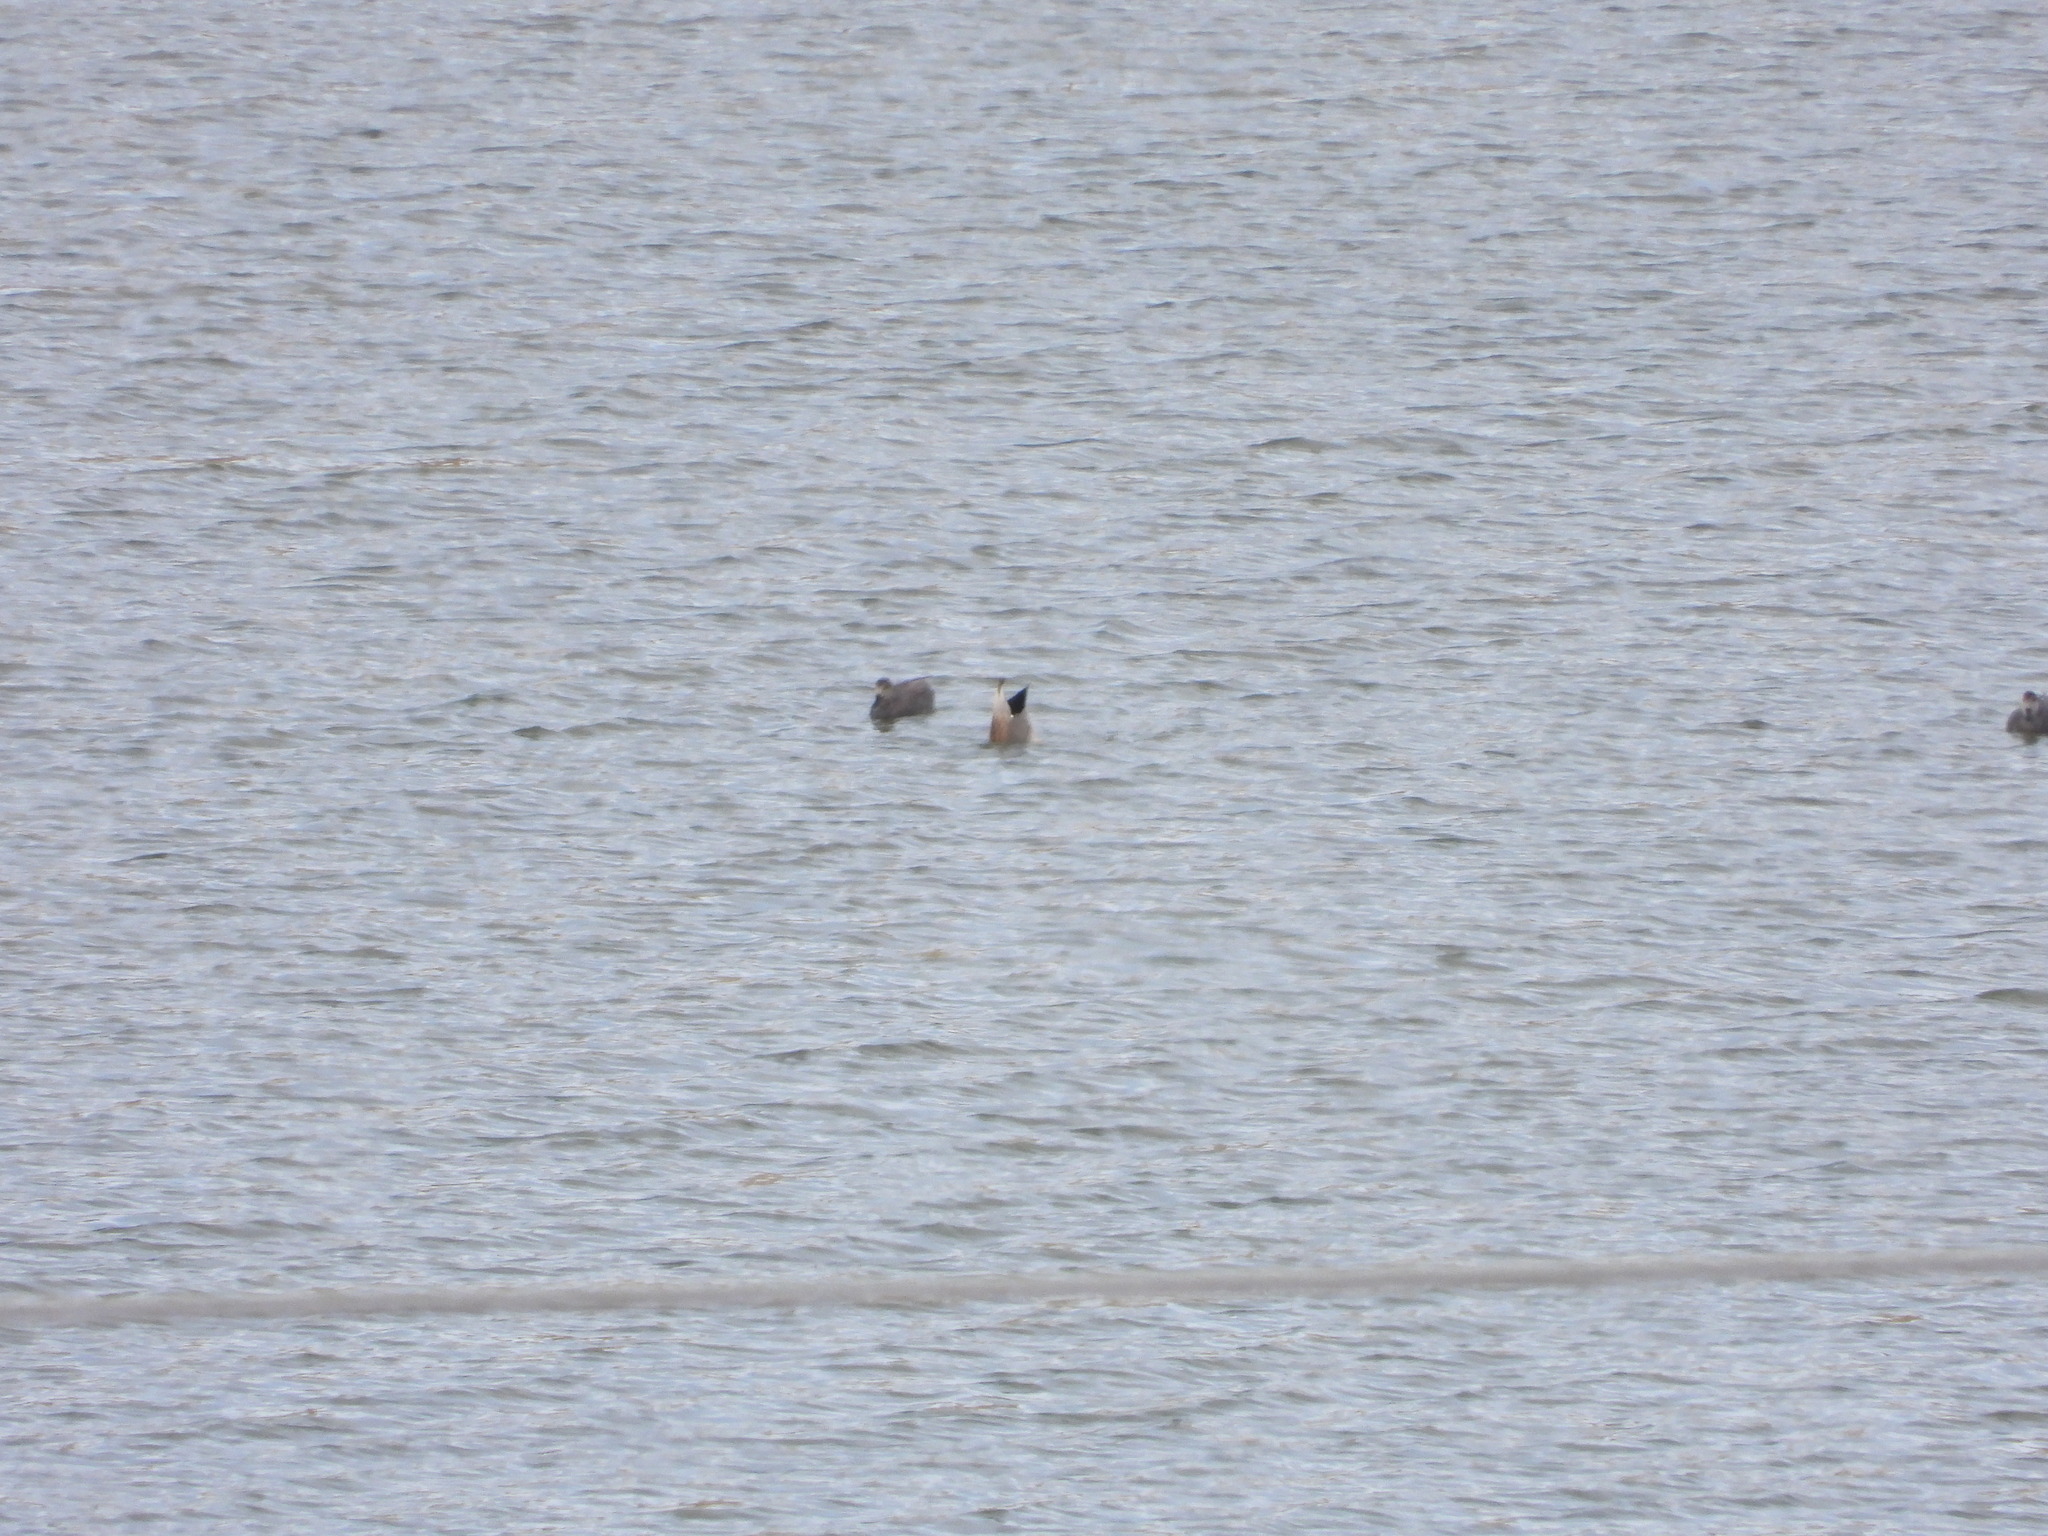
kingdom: Animalia
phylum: Chordata
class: Aves
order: Anseriformes
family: Anatidae
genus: Mareca
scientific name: Mareca strepera
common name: Gadwall
